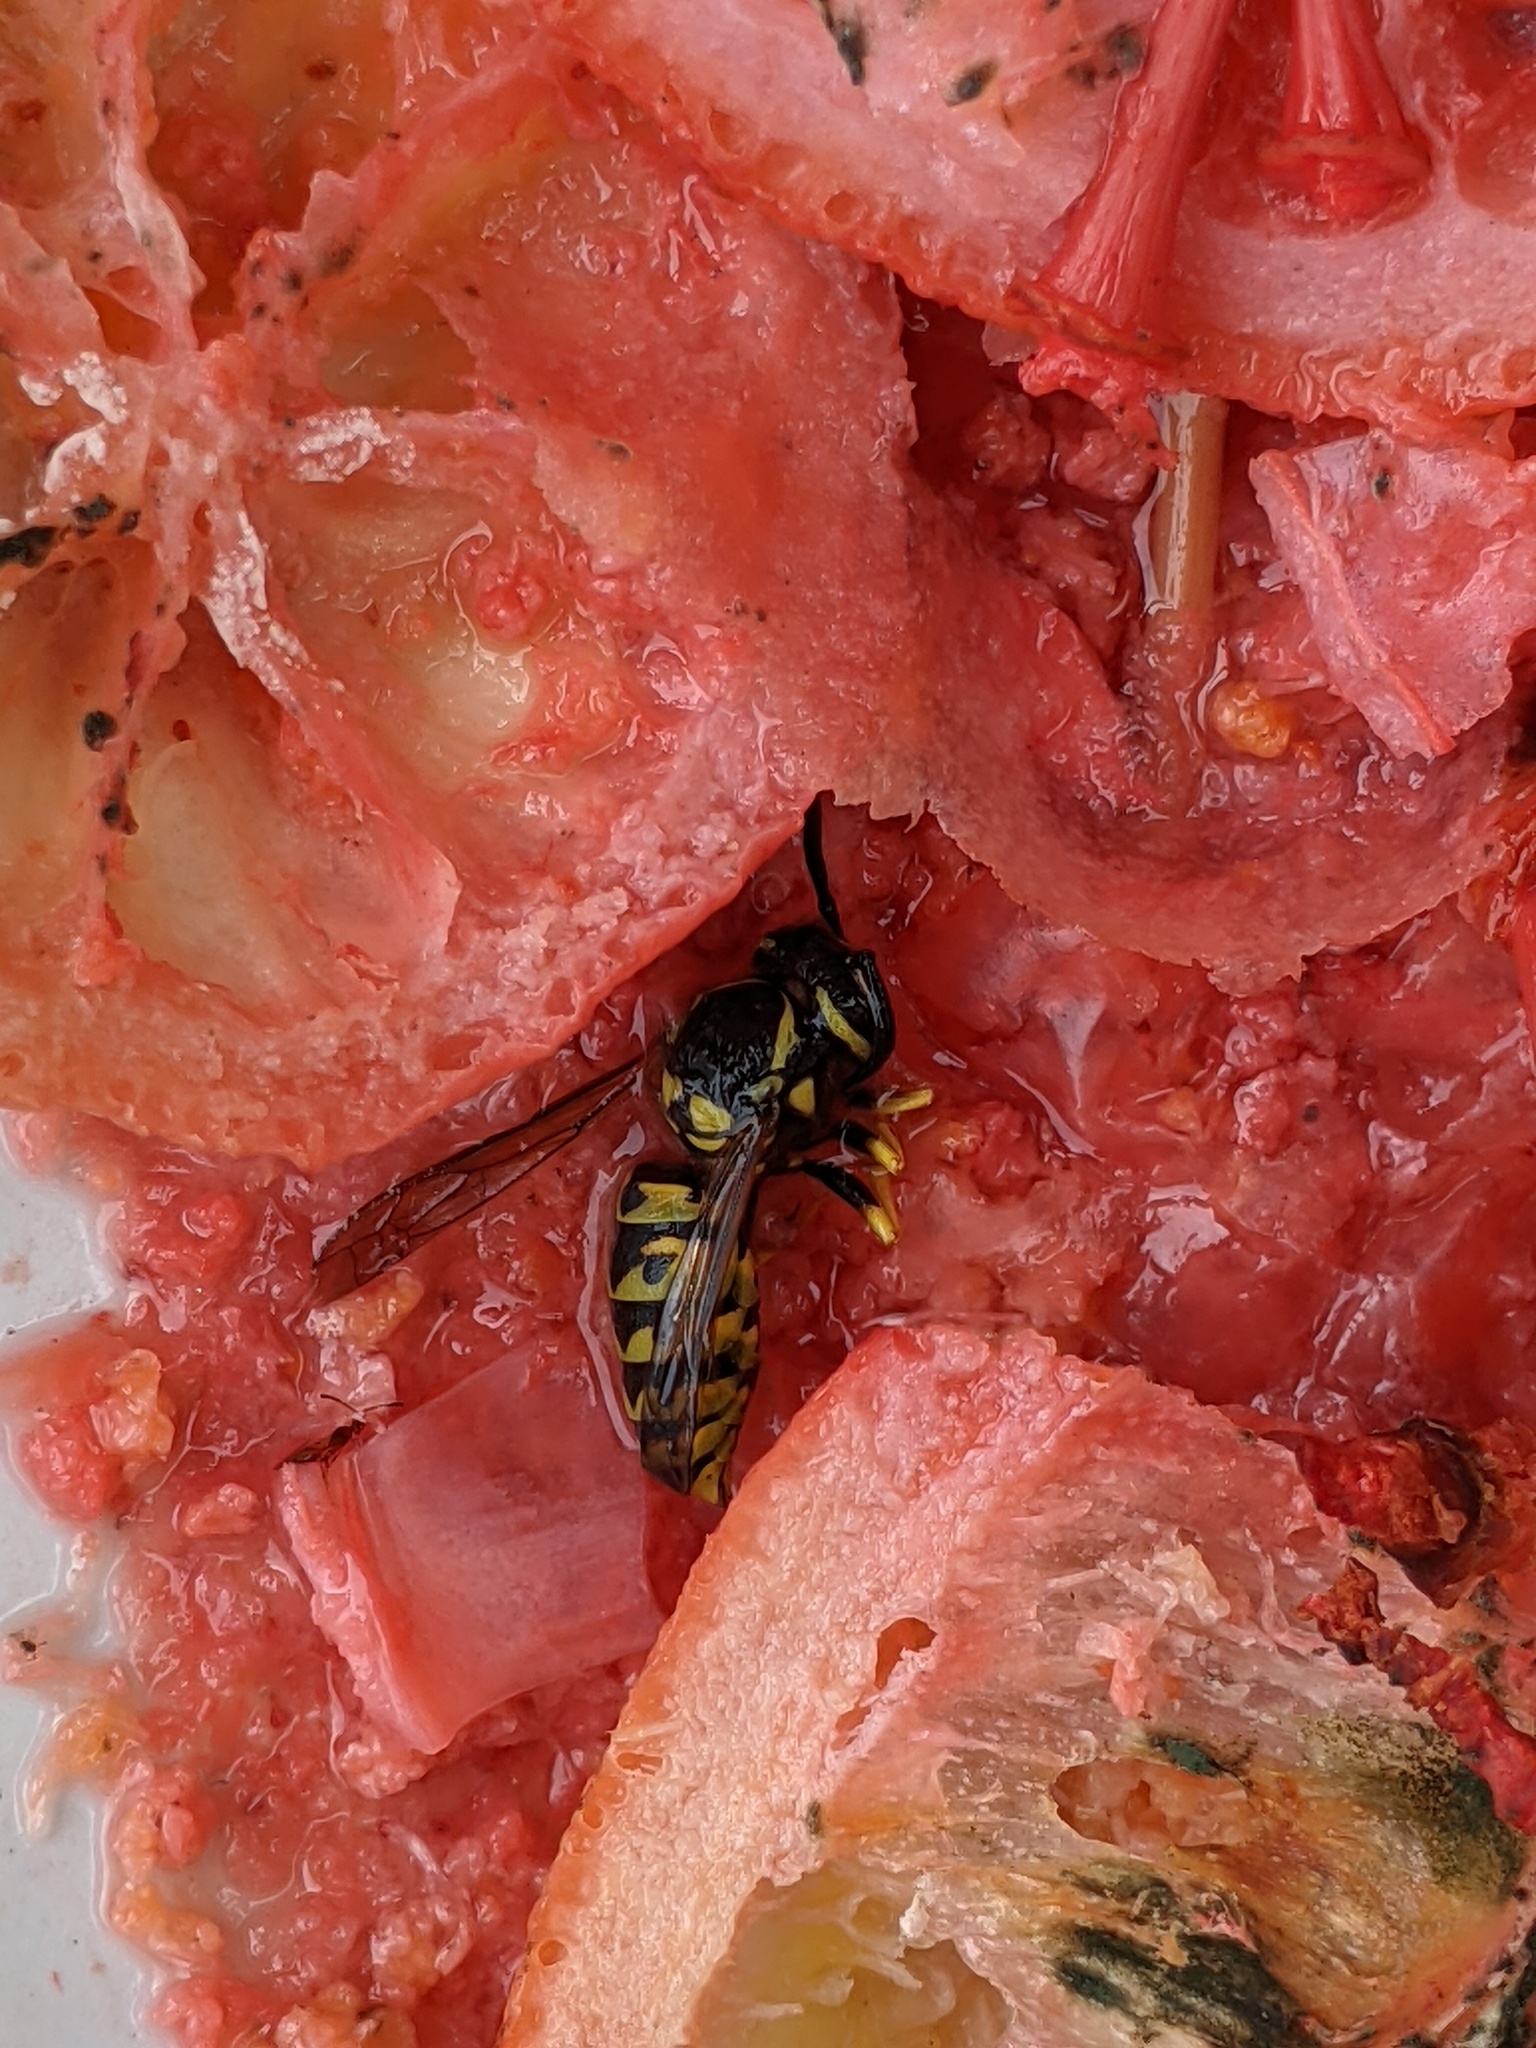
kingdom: Animalia
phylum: Arthropoda
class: Insecta
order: Hymenoptera
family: Vespidae
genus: Vespula
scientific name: Vespula germanica
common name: German wasp
